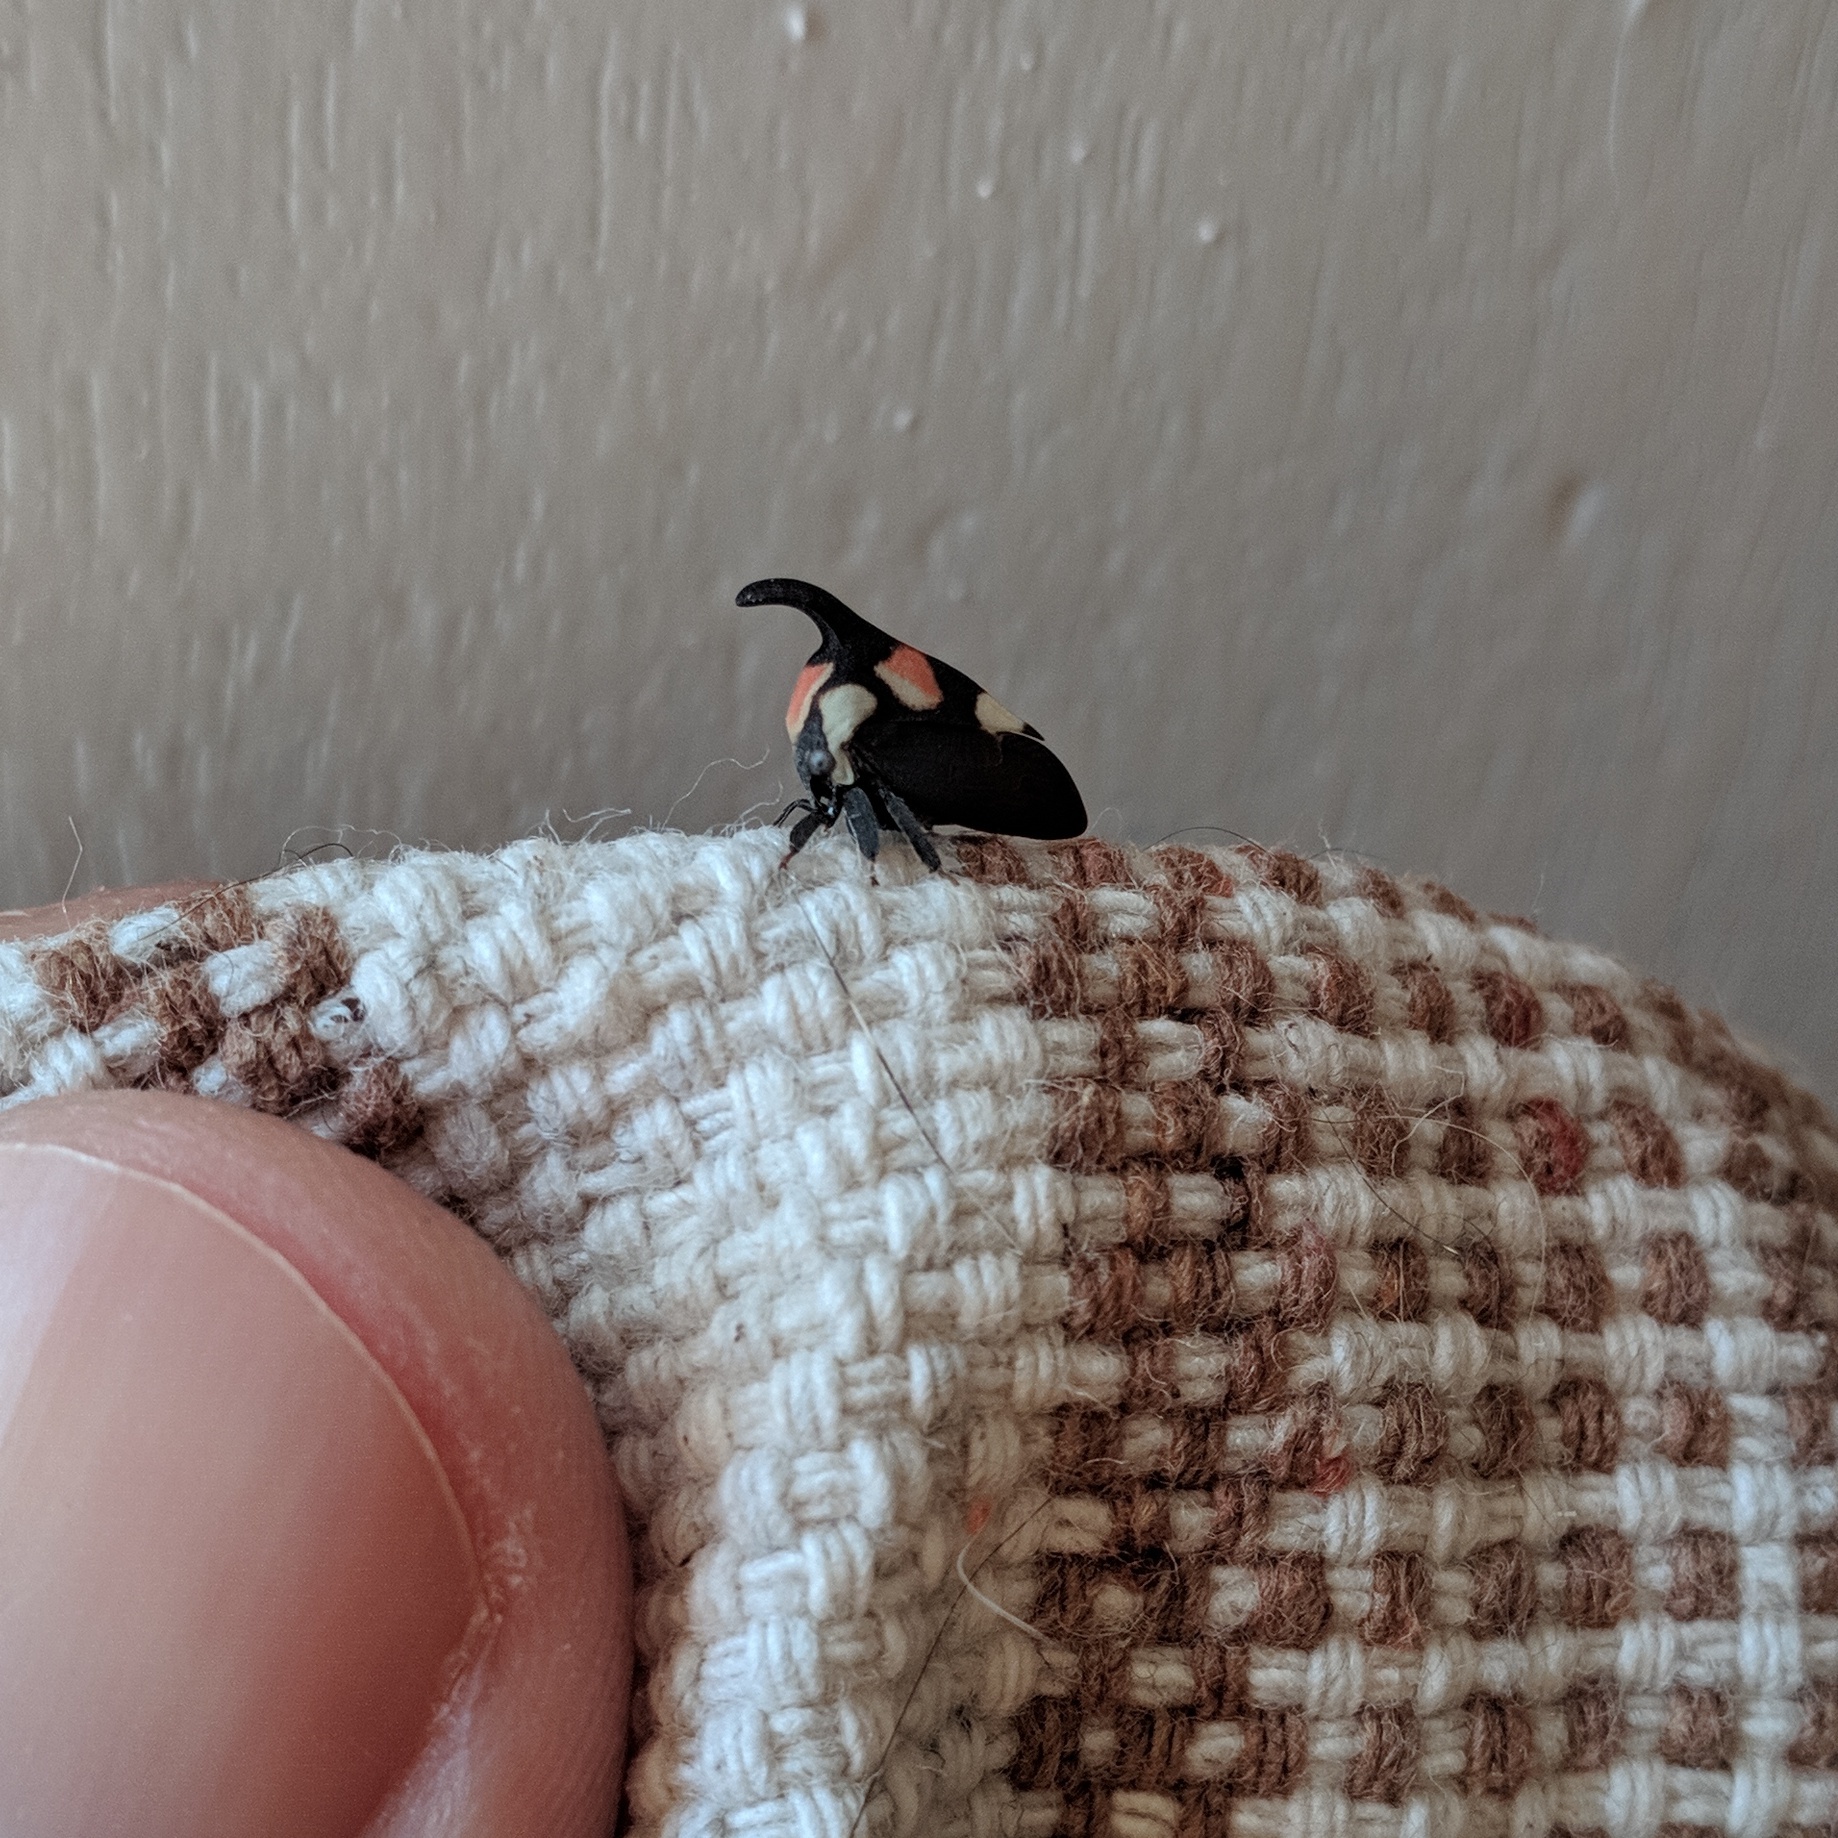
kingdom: Animalia
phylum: Arthropoda
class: Insecta
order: Hemiptera
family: Membracidae
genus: Enchophyllum
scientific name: Enchophyllum quinquemaculata
